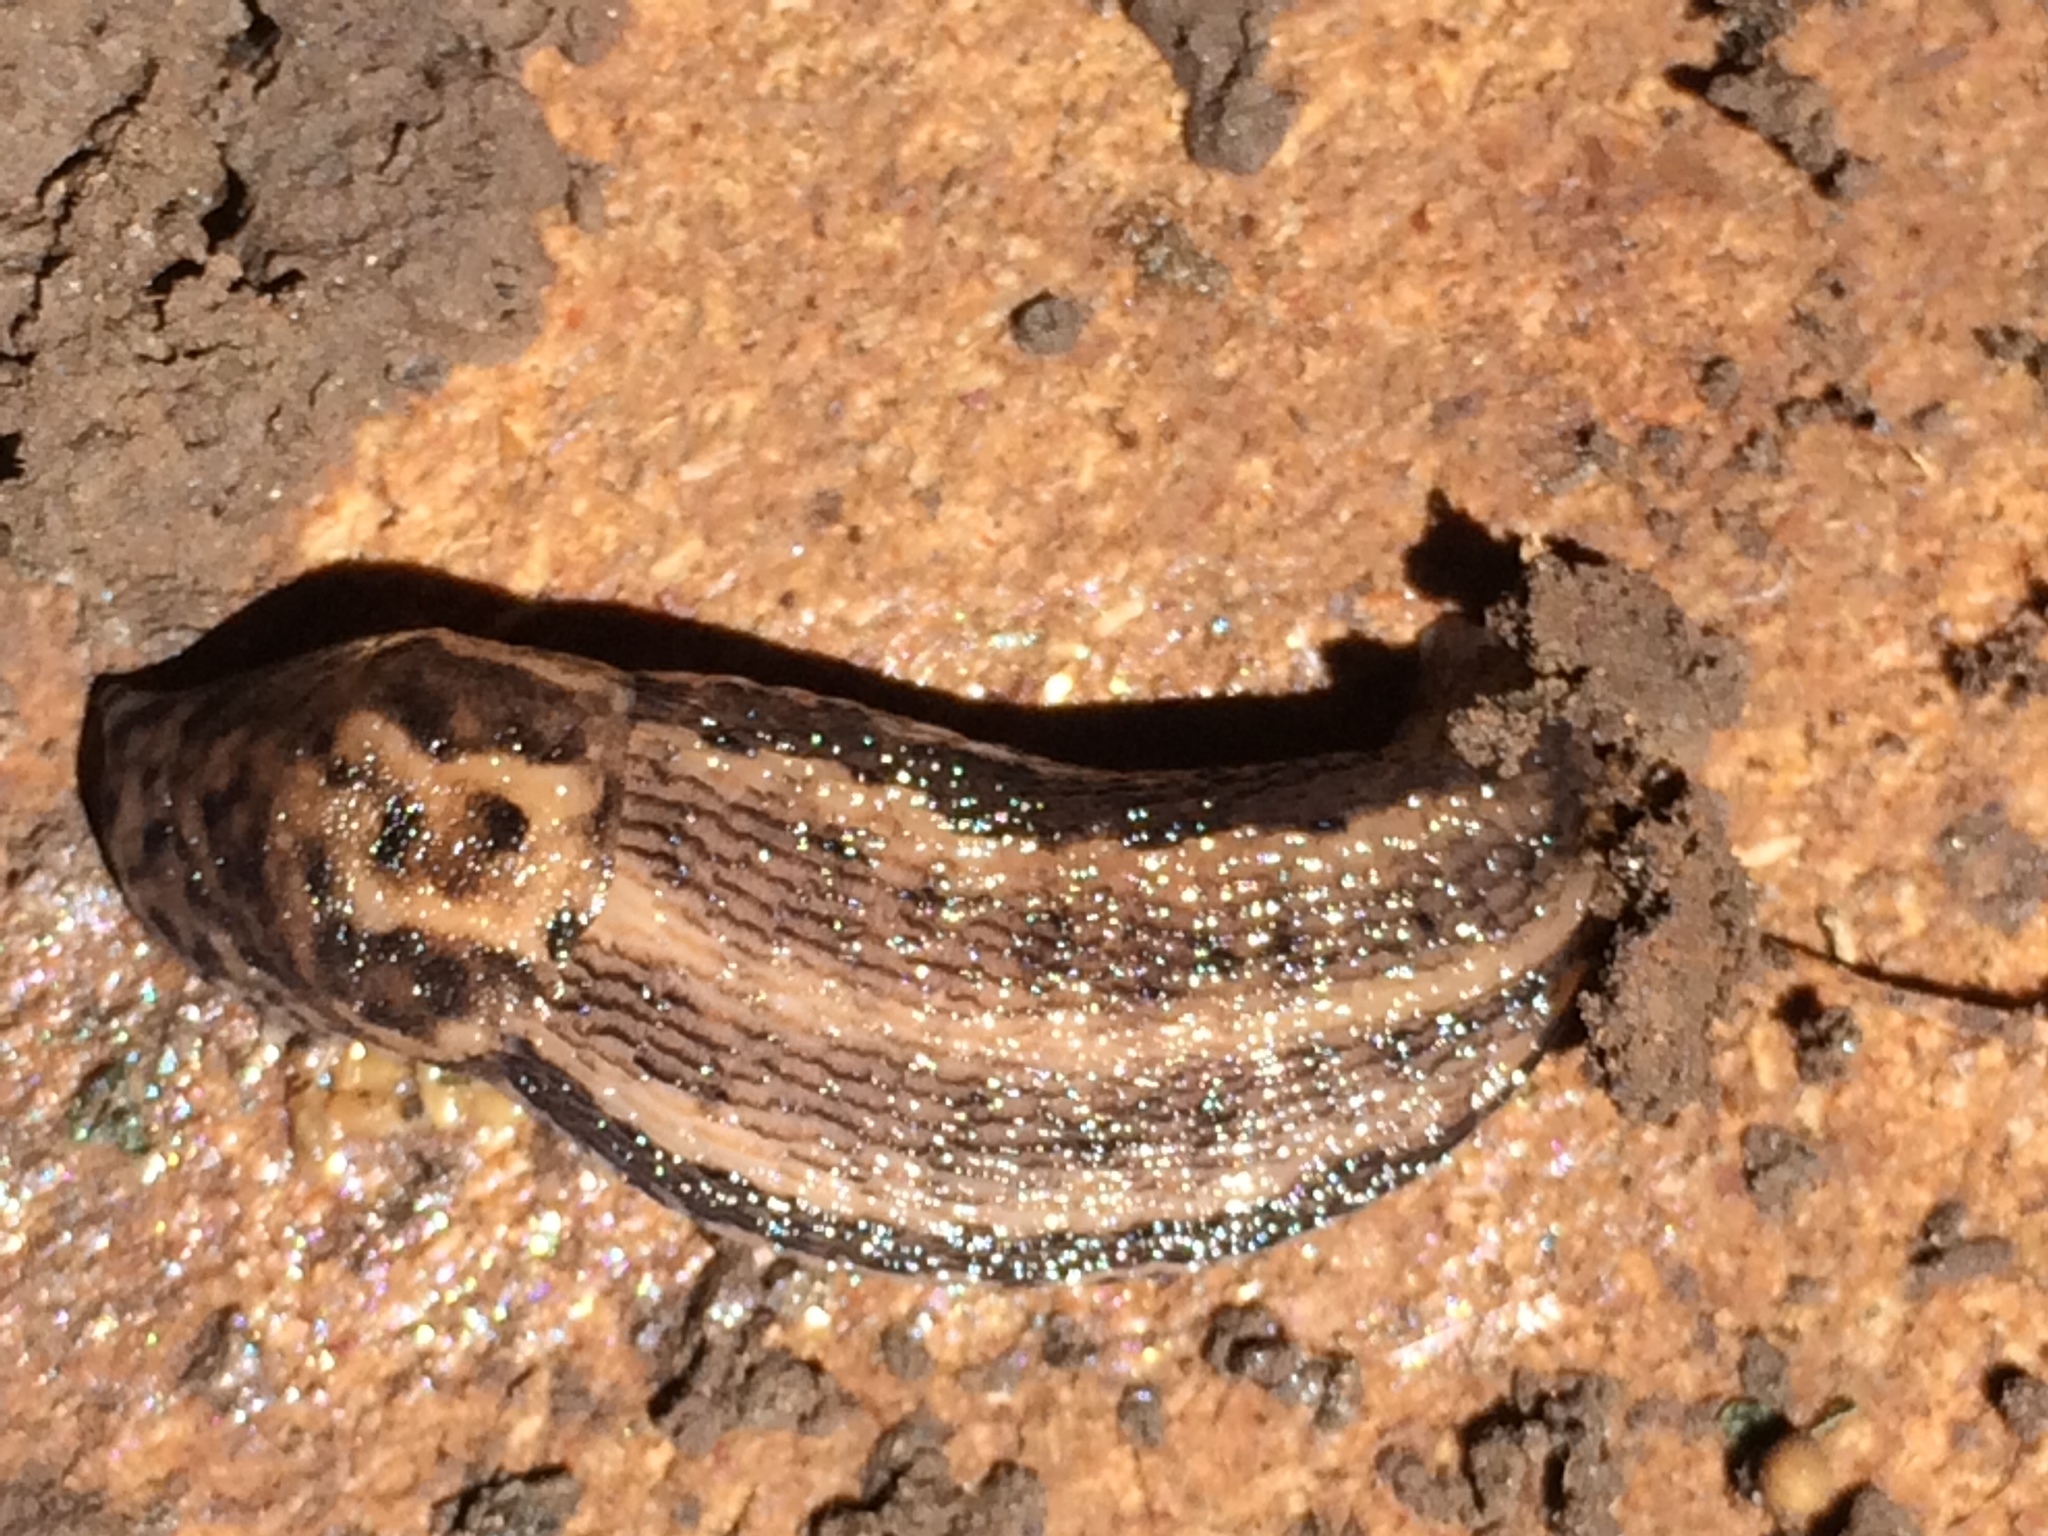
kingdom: Animalia
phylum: Mollusca
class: Gastropoda
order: Stylommatophora
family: Limacidae
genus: Limax
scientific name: Limax maximus
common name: Great grey slug
